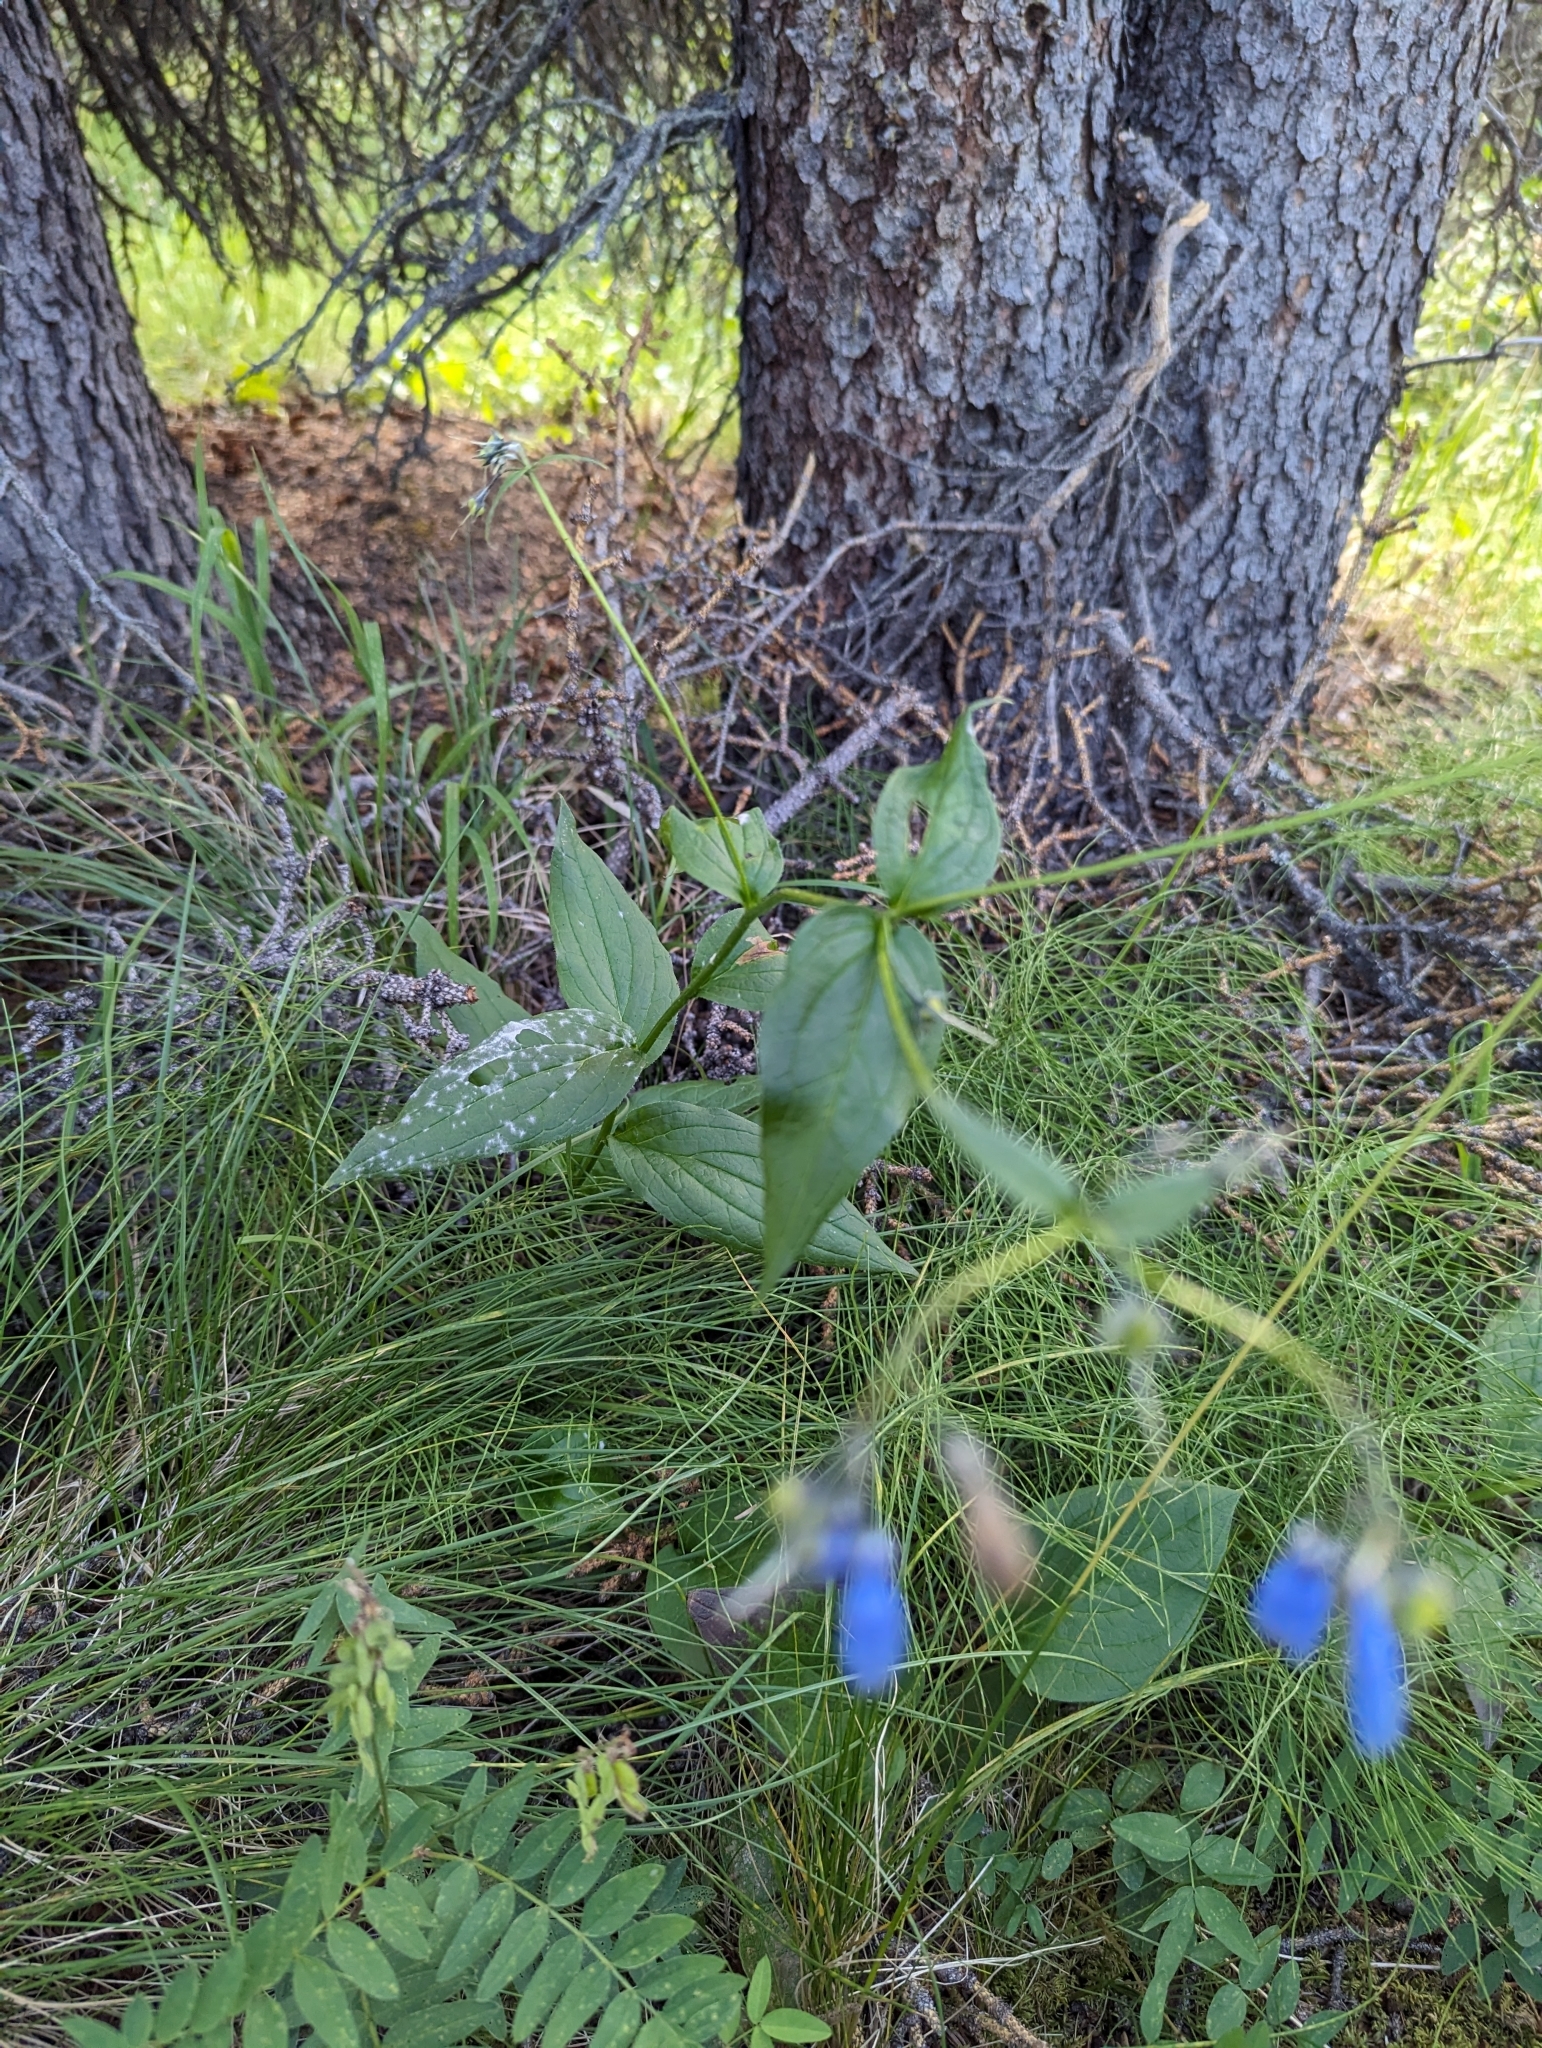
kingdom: Plantae
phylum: Tracheophyta
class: Magnoliopsida
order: Boraginales
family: Boraginaceae
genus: Mertensia
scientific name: Mertensia paniculata
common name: Panicled bluebells
